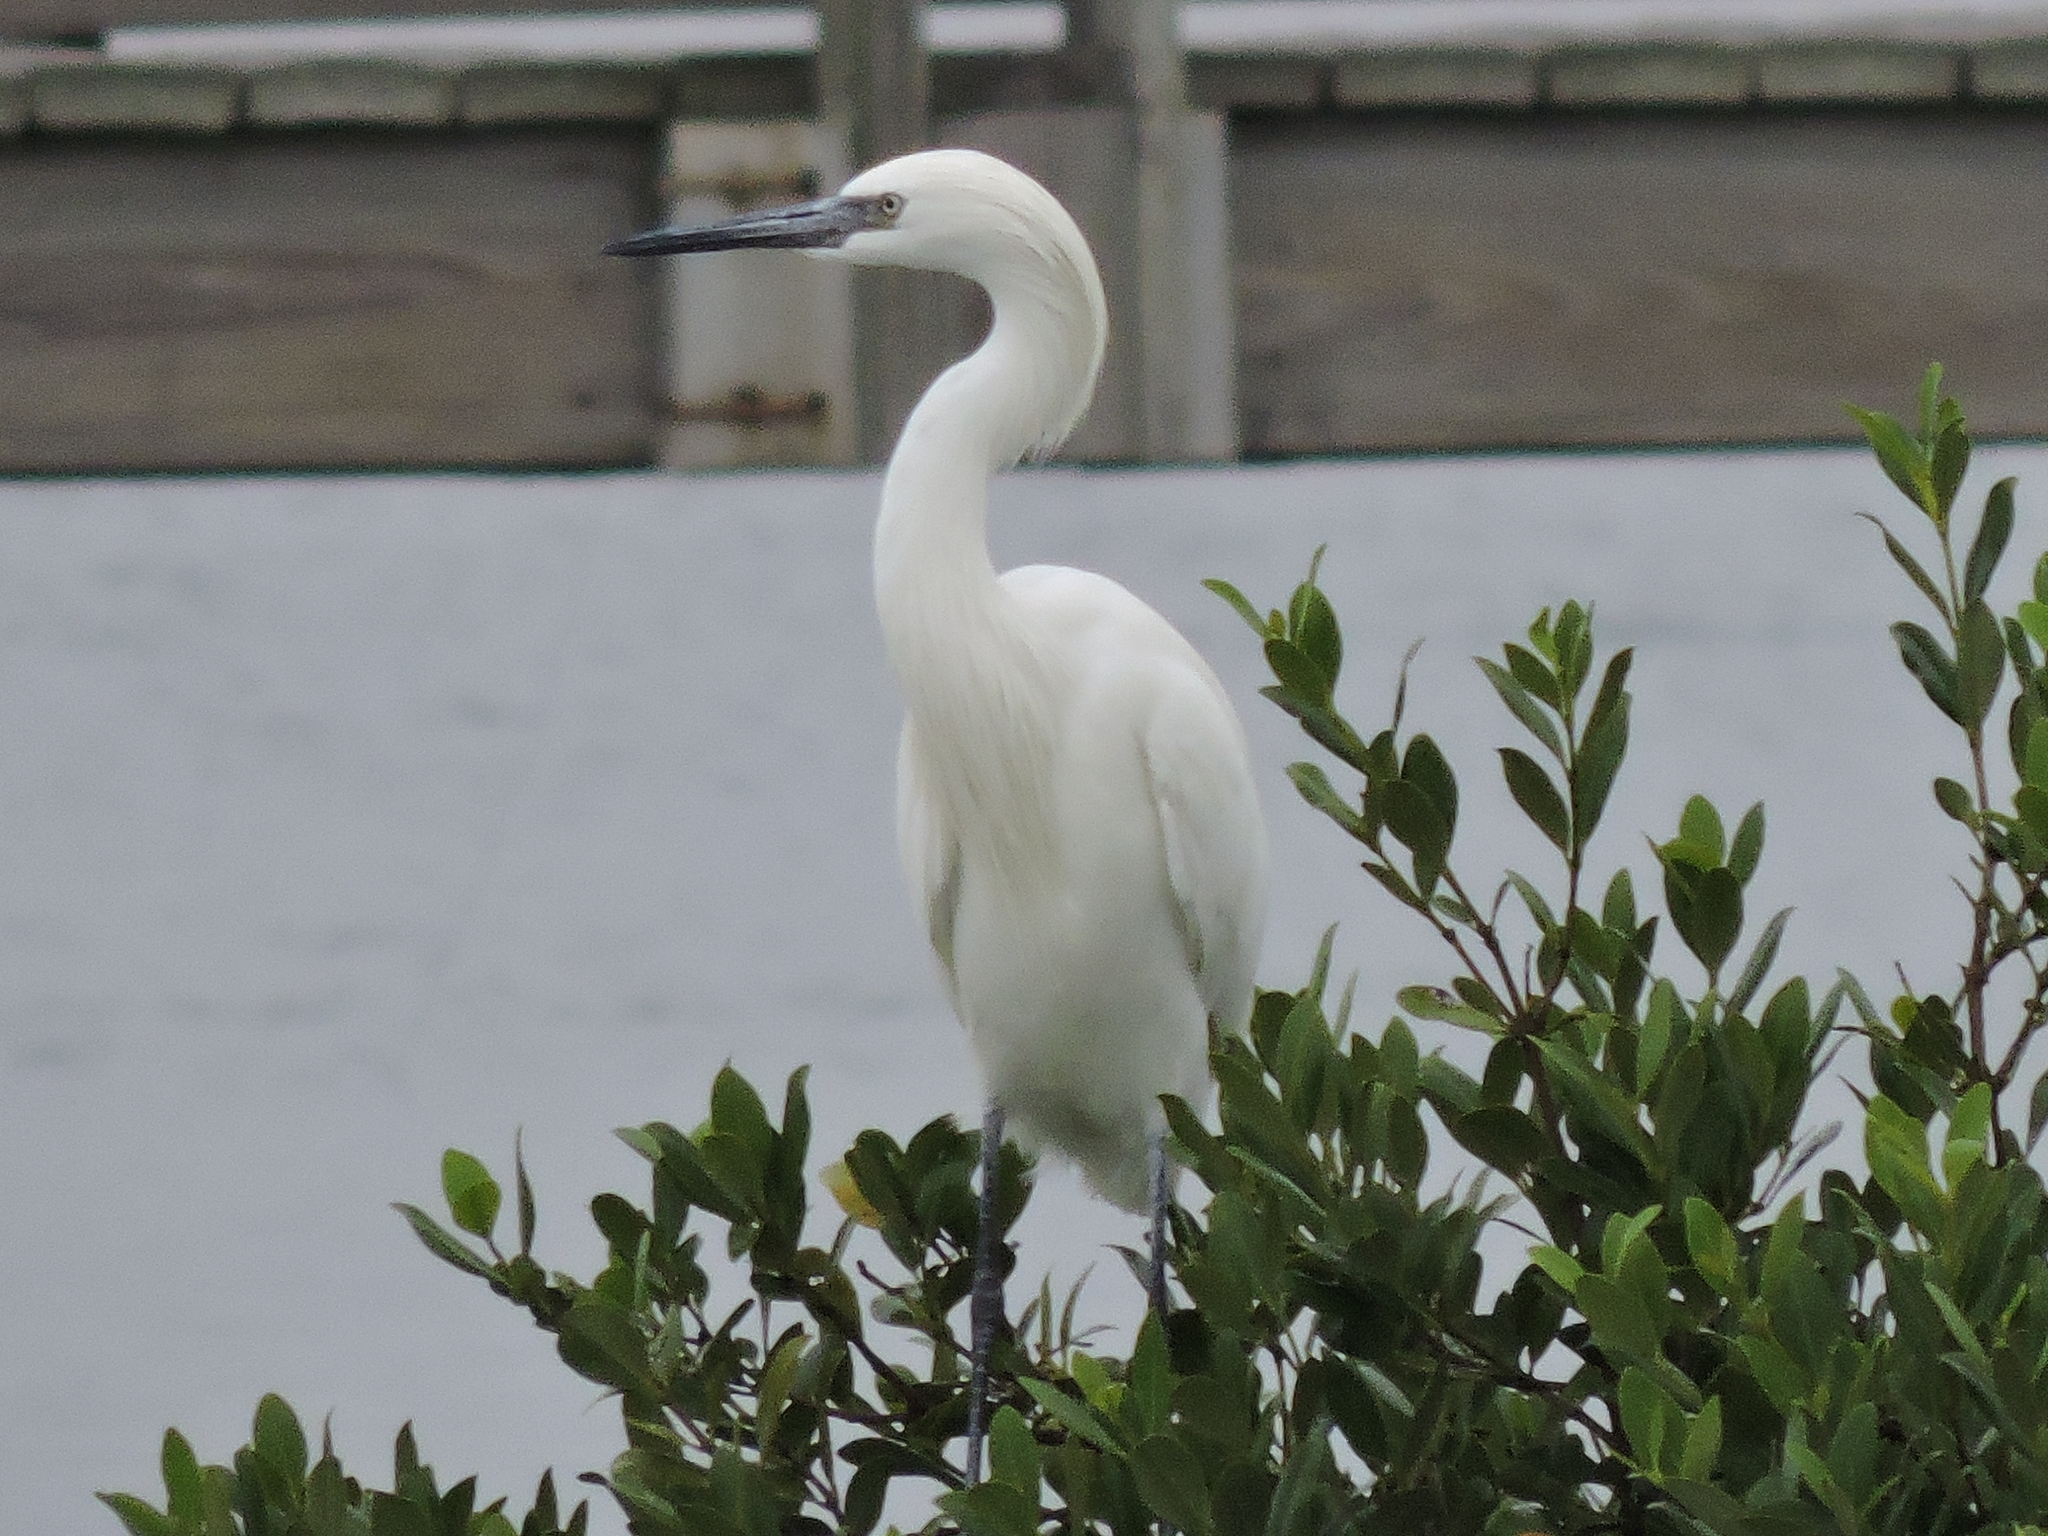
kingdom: Animalia
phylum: Chordata
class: Aves
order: Pelecaniformes
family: Ardeidae
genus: Egretta
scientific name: Egretta rufescens
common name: Reddish egret
